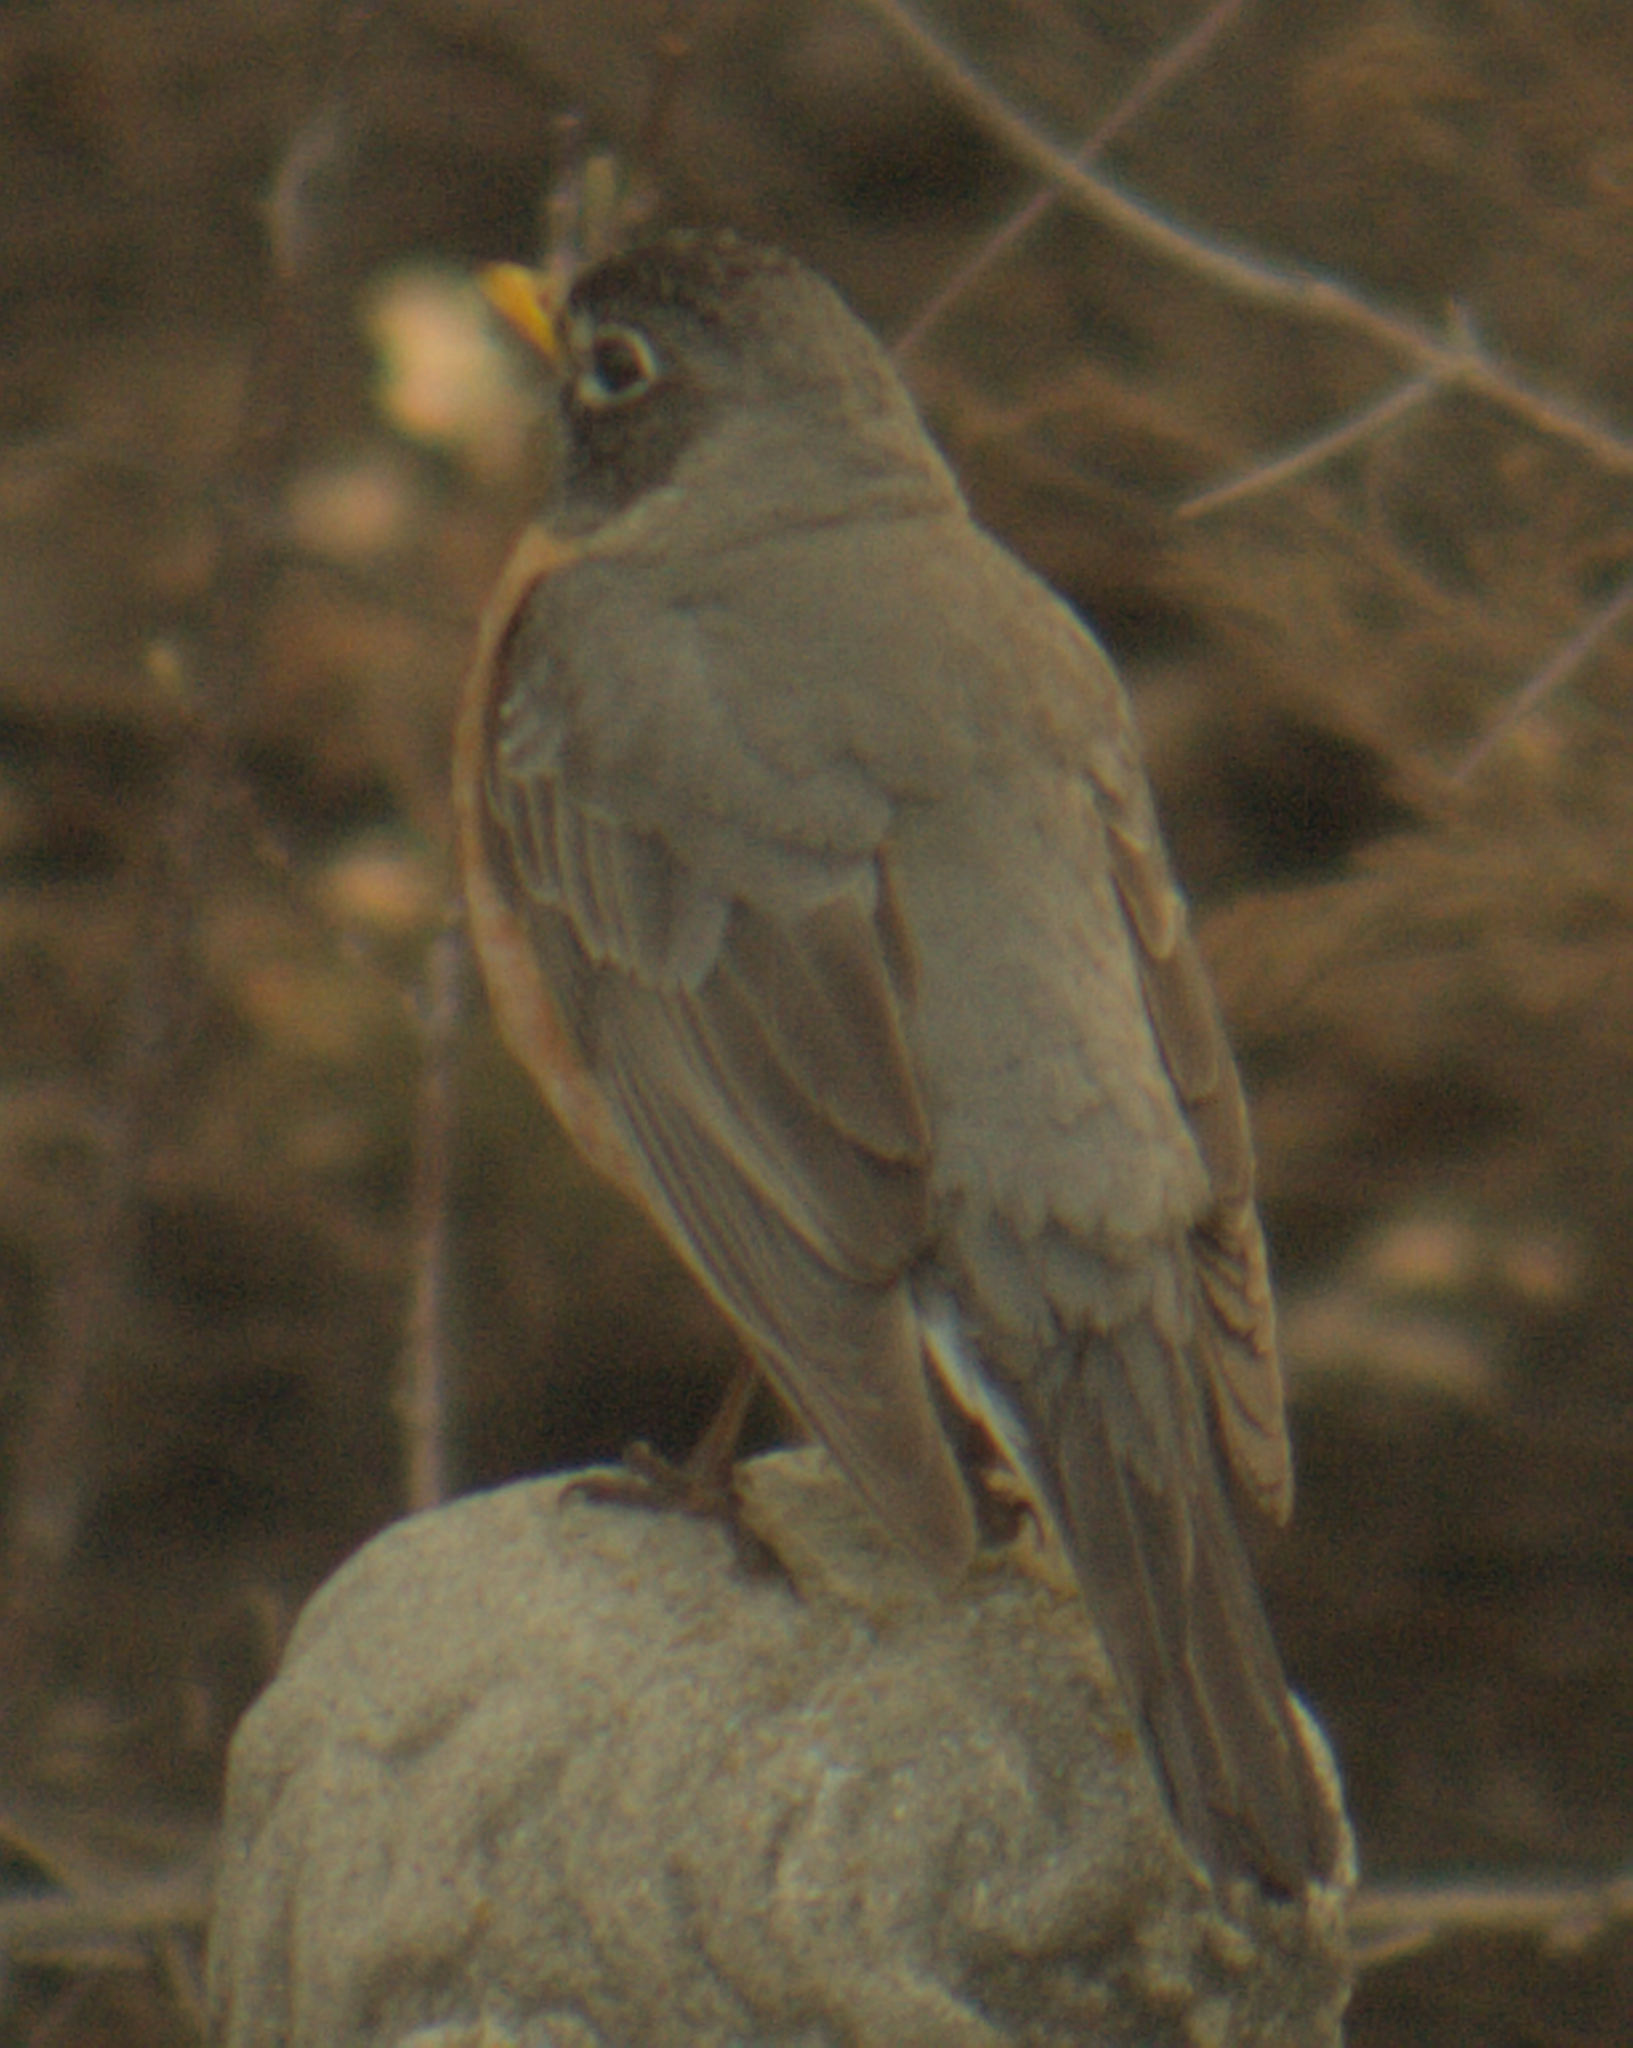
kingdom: Animalia
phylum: Chordata
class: Aves
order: Passeriformes
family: Turdidae
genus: Turdus
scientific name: Turdus migratorius
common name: American robin
